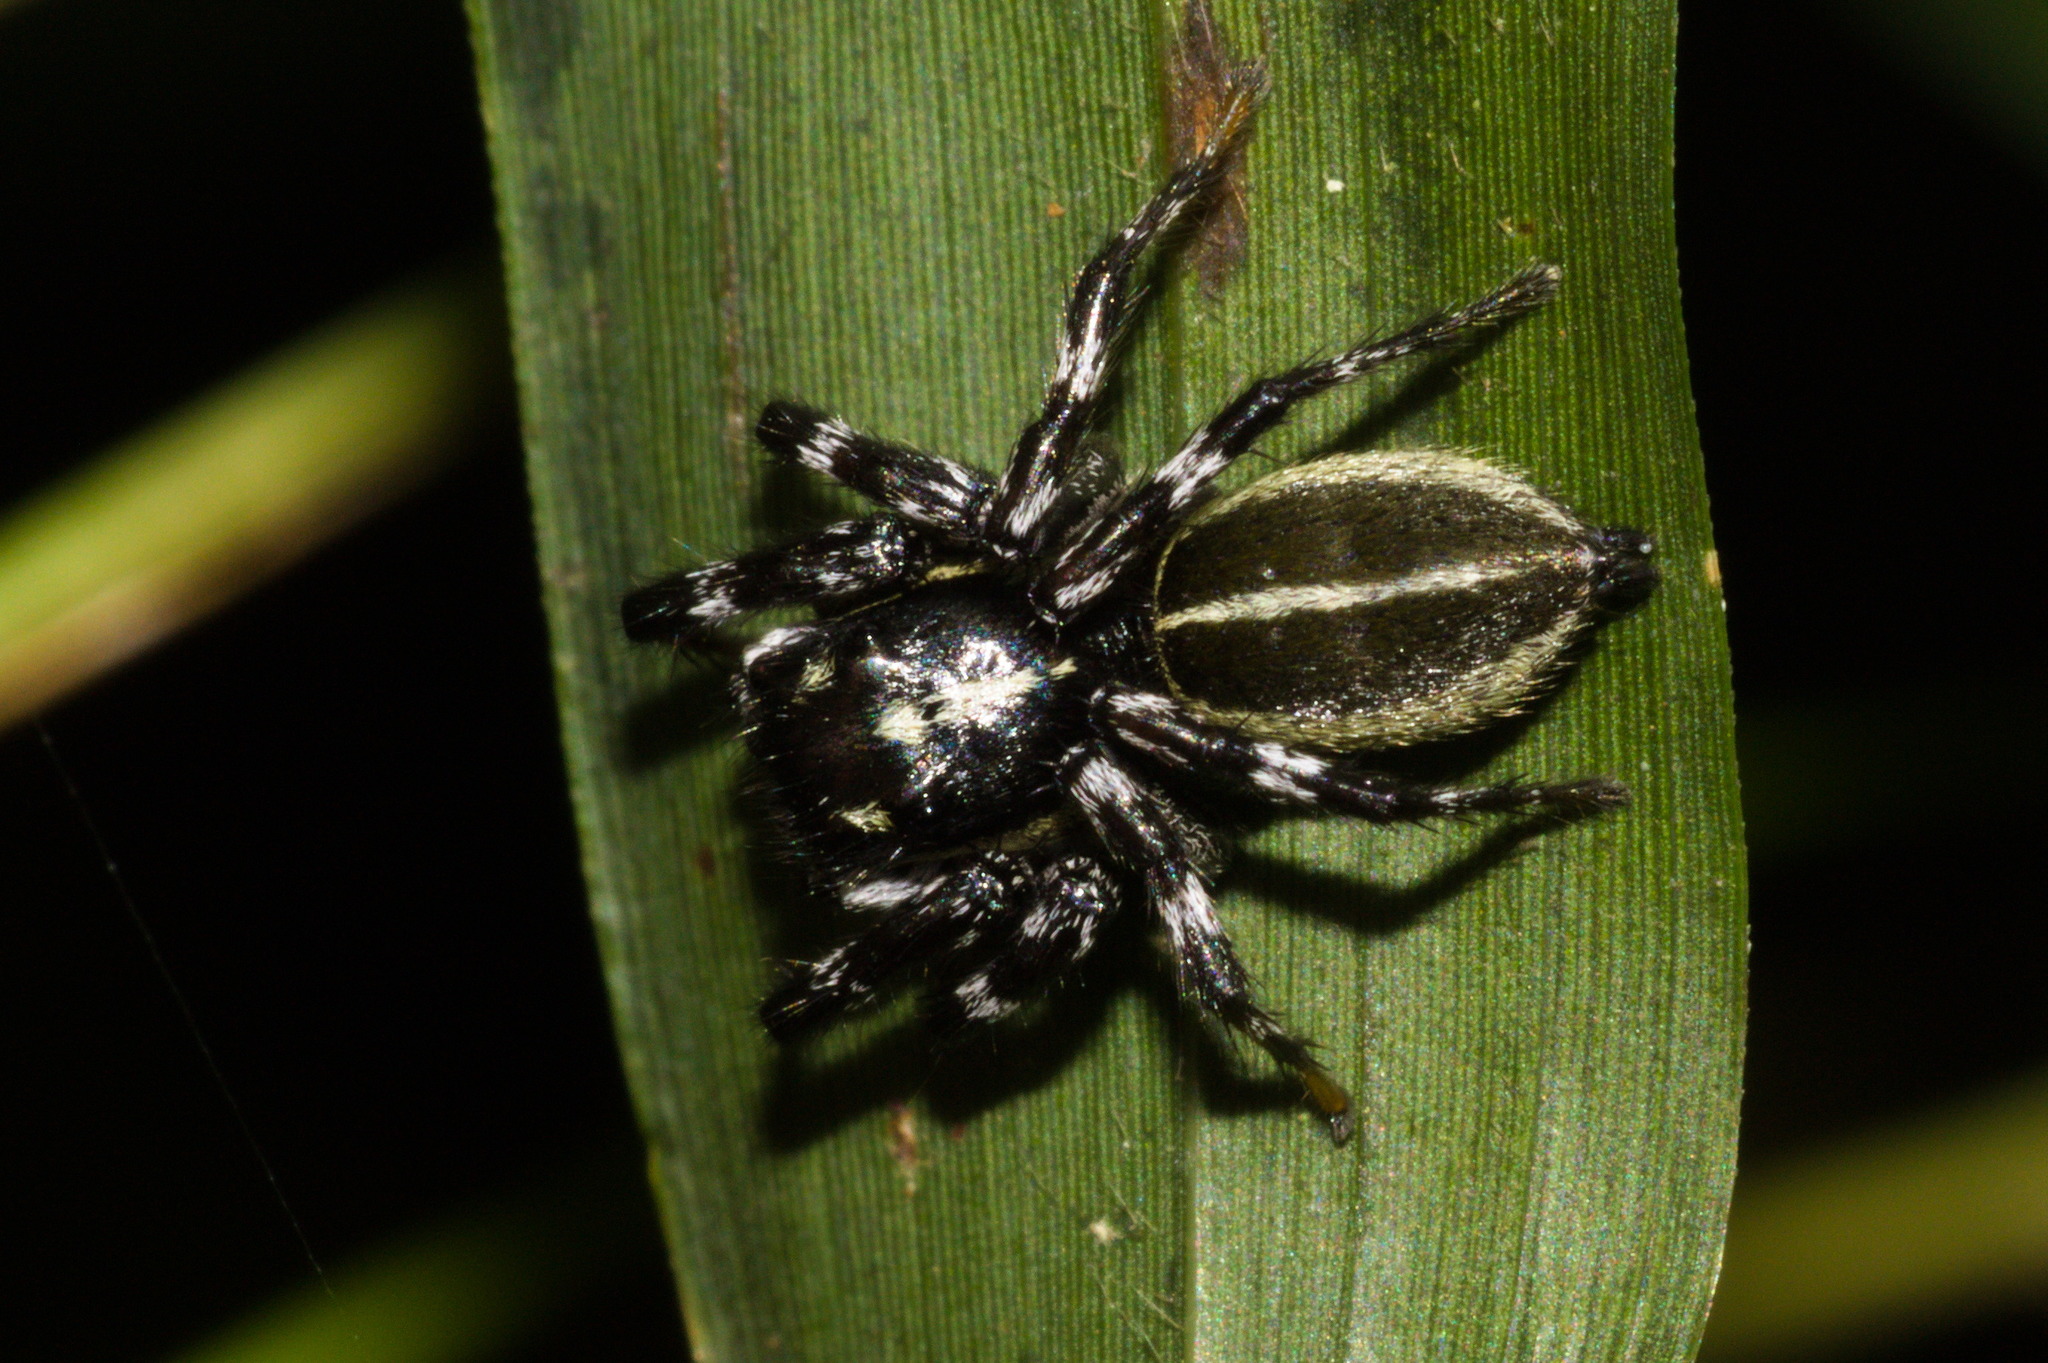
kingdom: Animalia
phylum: Arthropoda
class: Arachnida
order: Araneae
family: Salticidae
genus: Phiale
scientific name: Phiale tristis
